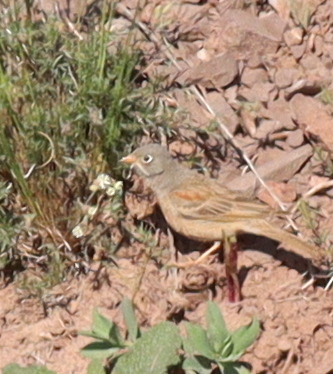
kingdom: Animalia
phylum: Chordata
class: Aves
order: Passeriformes
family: Emberizidae
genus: Emberiza
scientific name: Emberiza buchanani
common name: Grey-necked bunting
